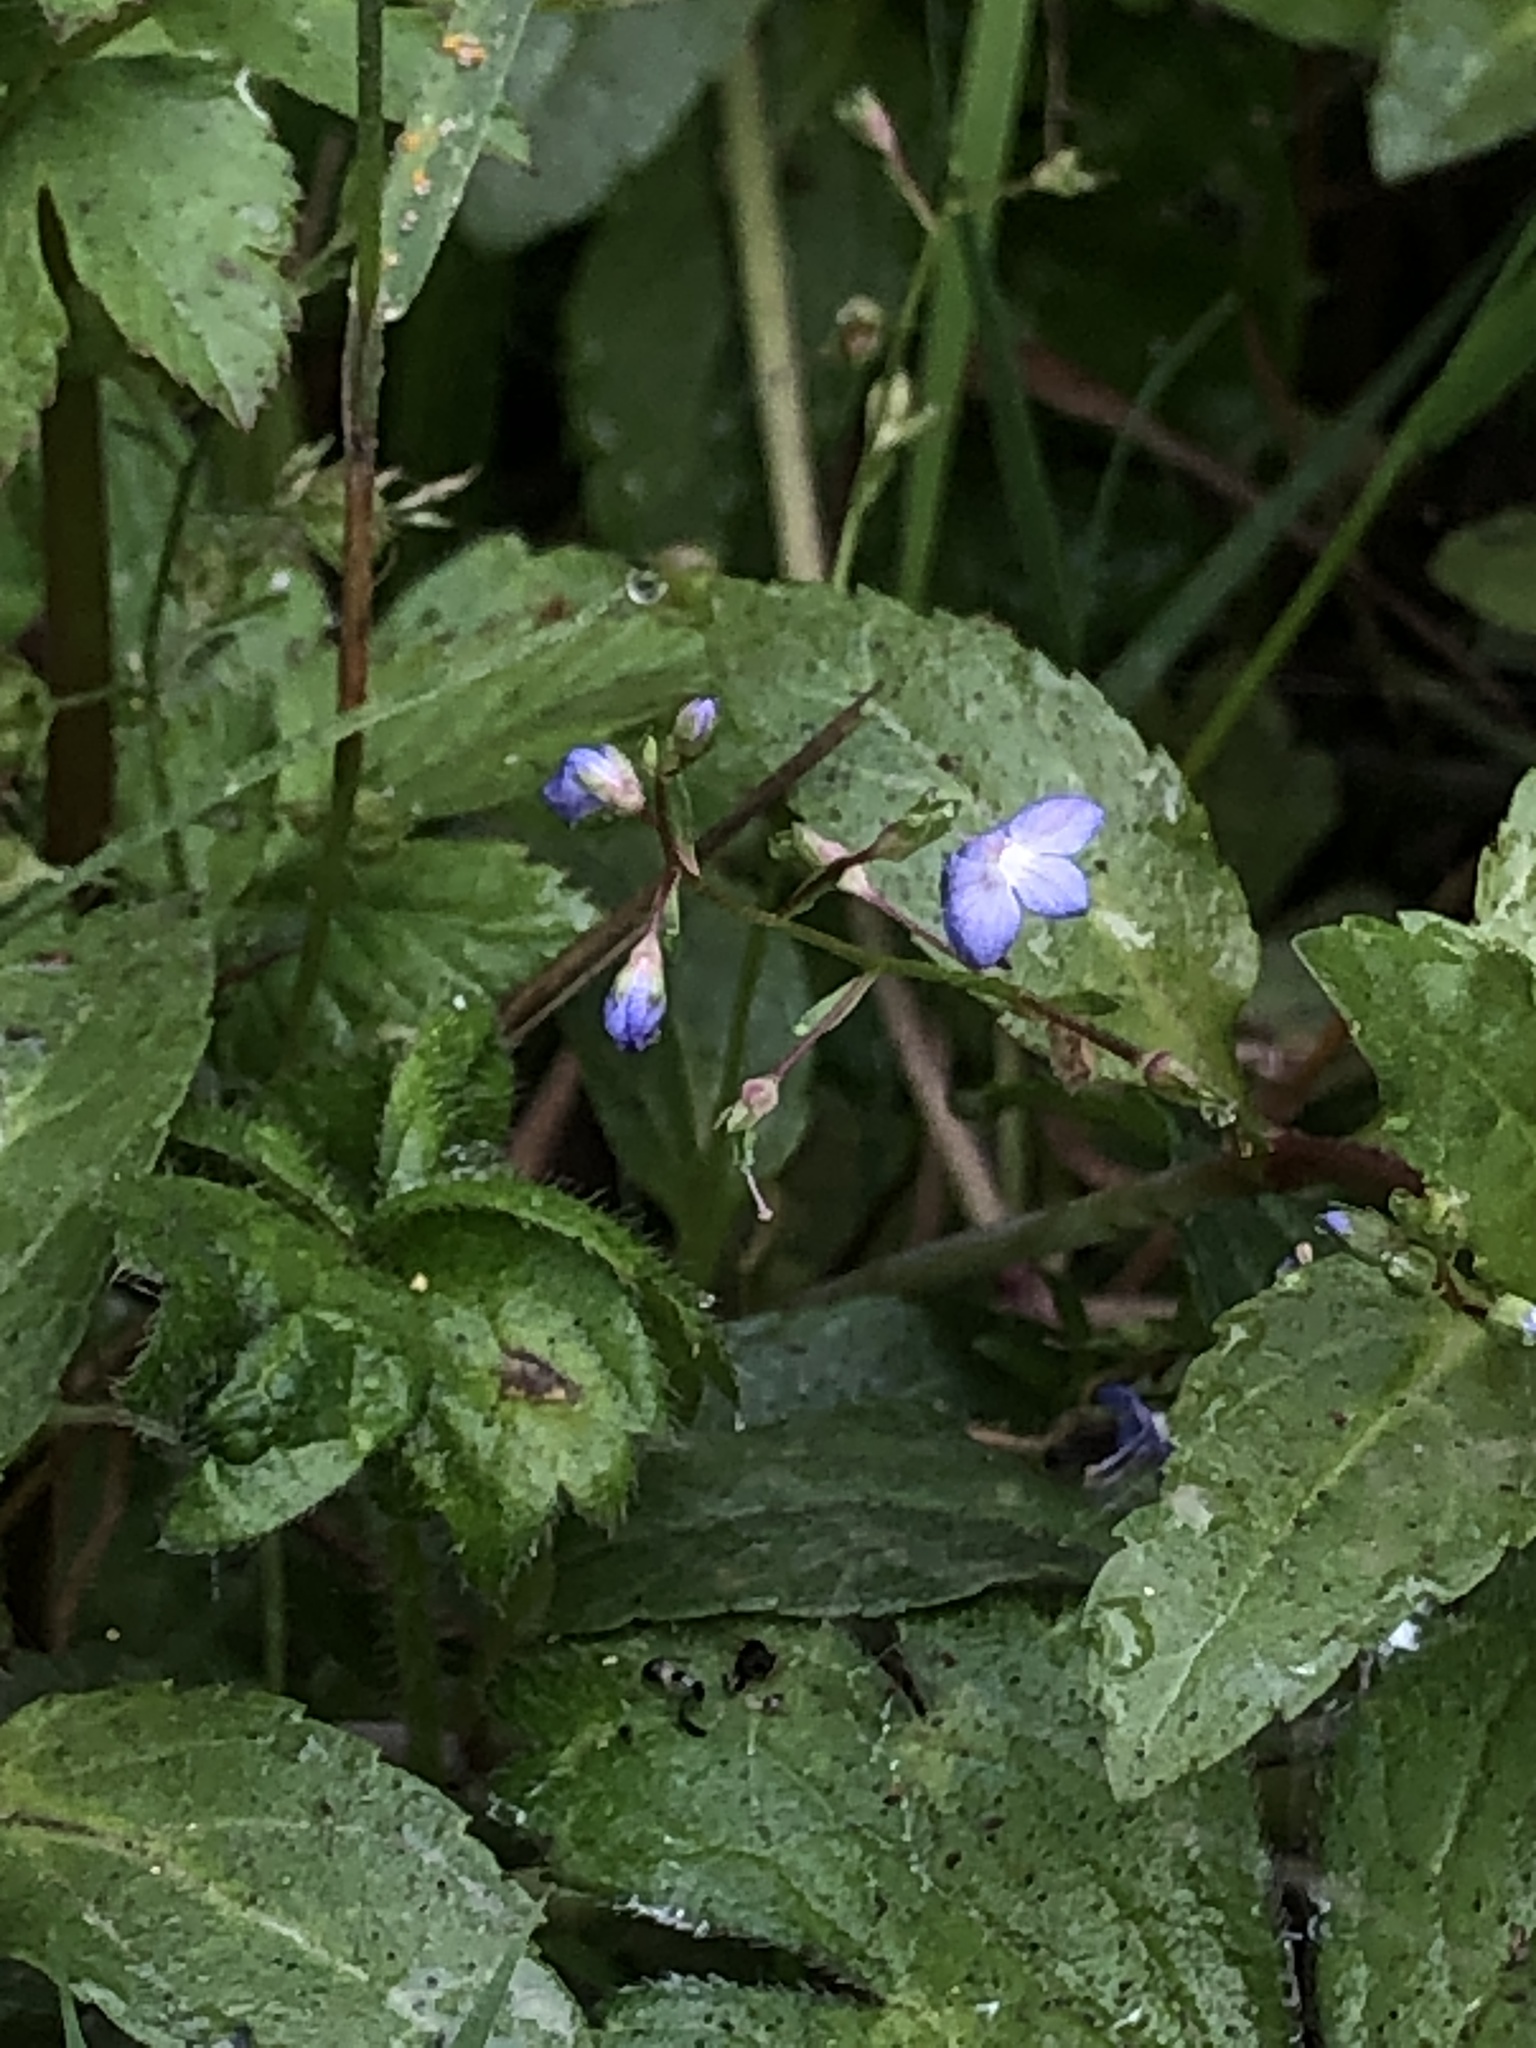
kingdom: Plantae
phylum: Tracheophyta
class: Magnoliopsida
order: Lamiales
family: Plantaginaceae
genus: Veronica
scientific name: Veronica americana
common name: American brooklime
